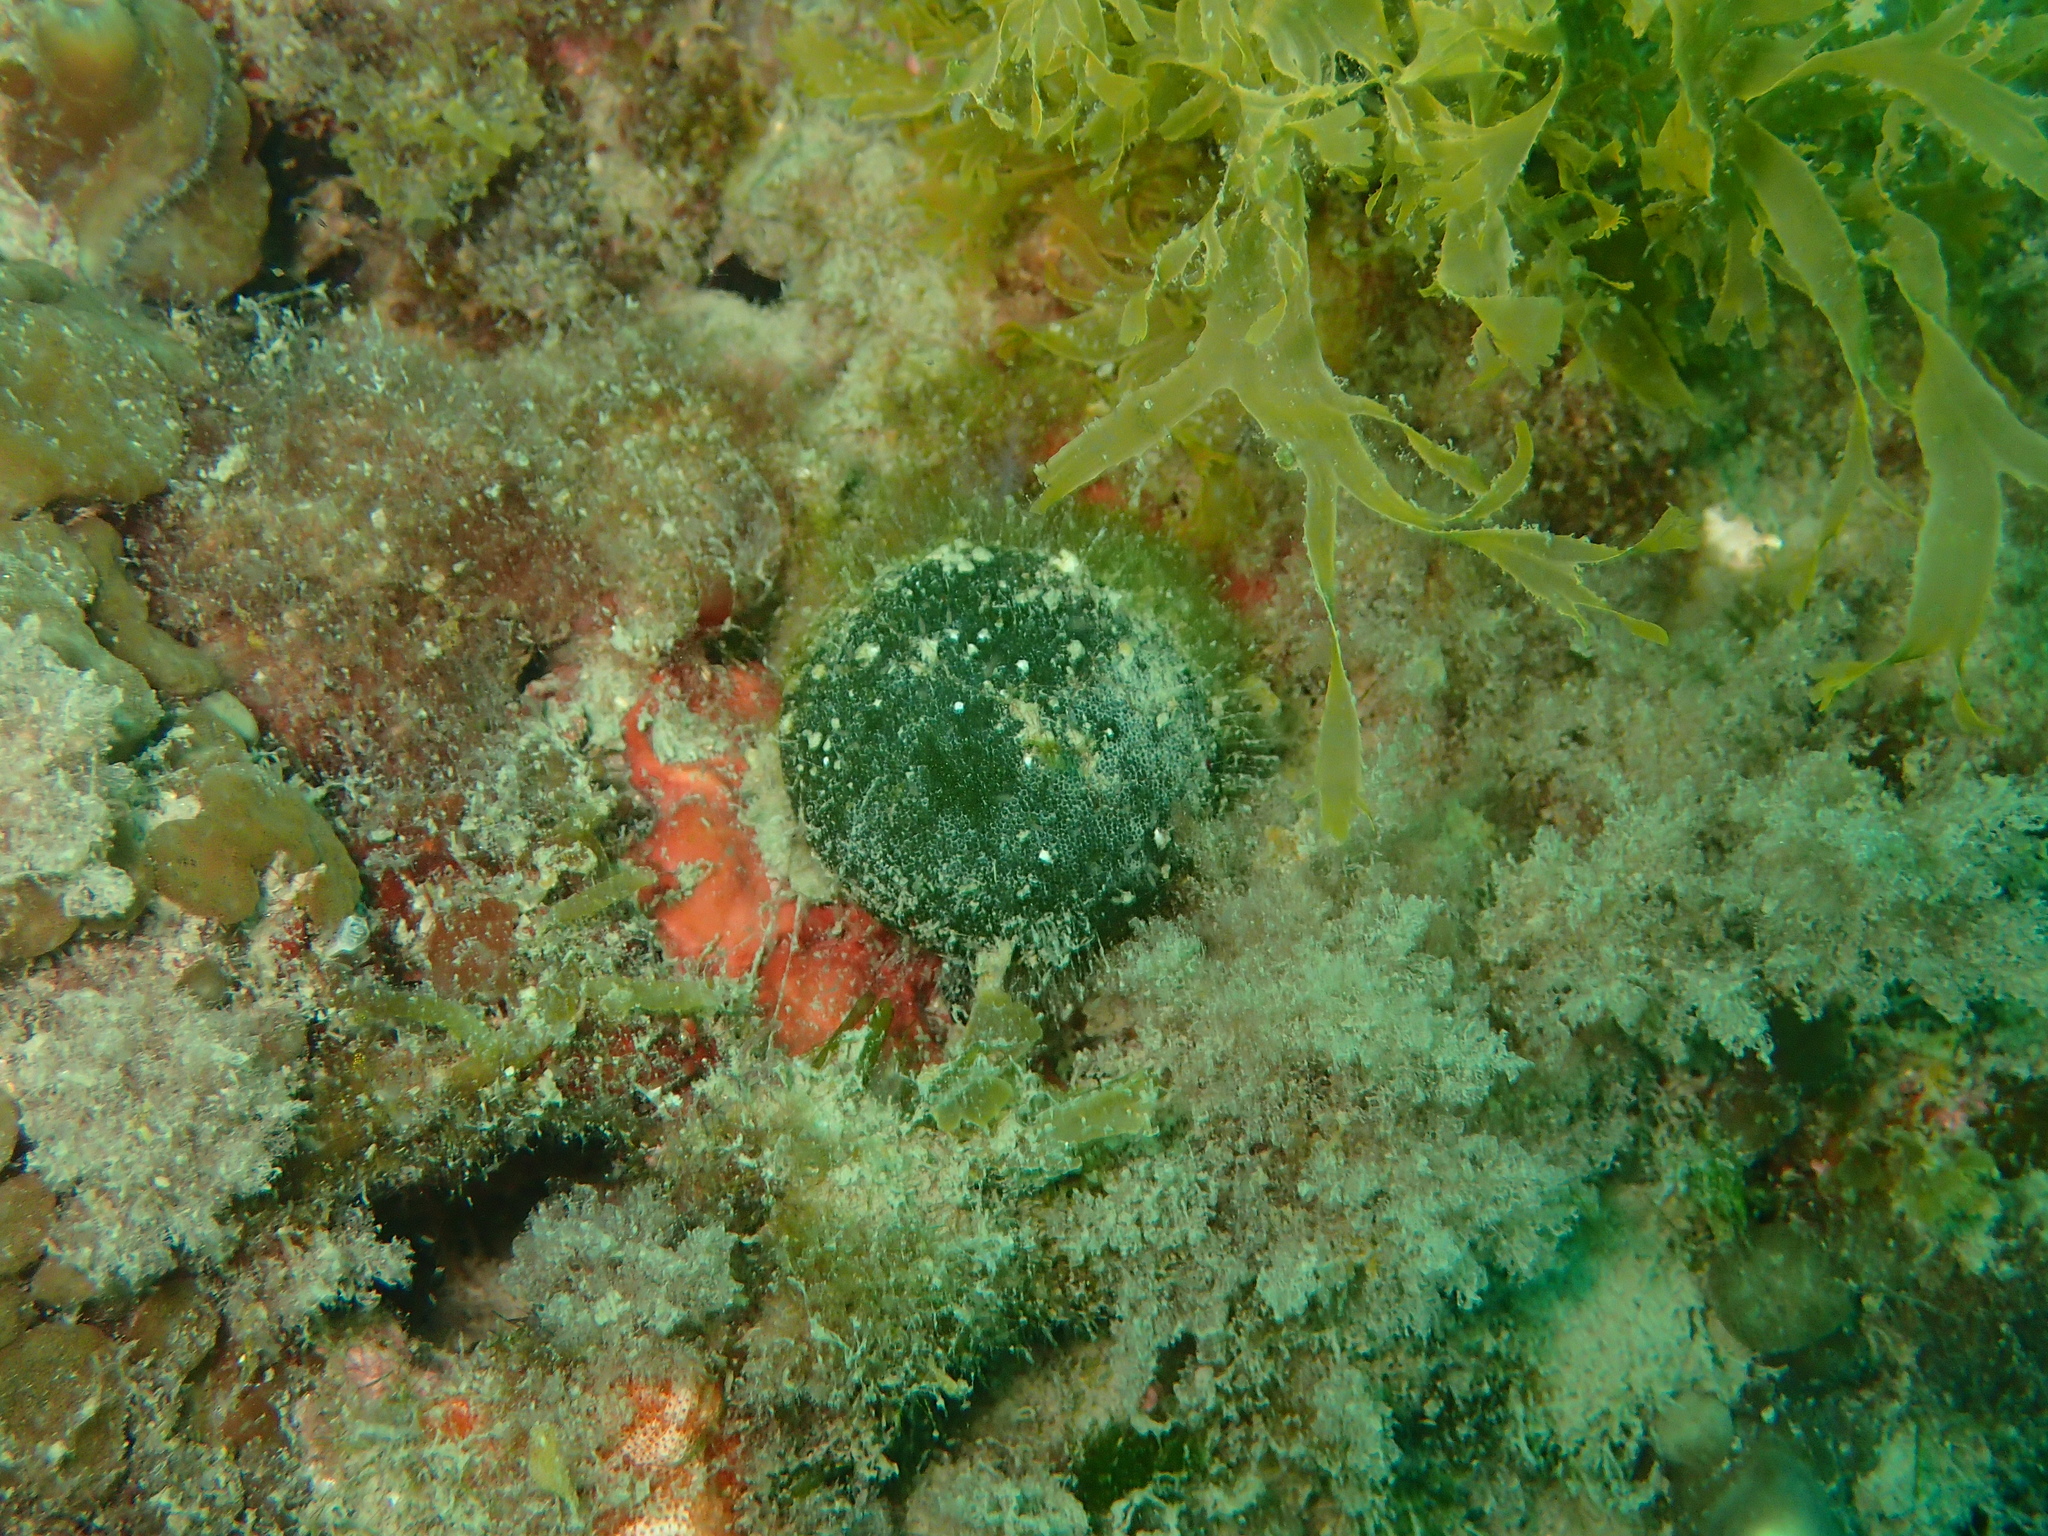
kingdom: Plantae
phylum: Chlorophyta
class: Ulvophyceae
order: Bryopsidales
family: Codiaceae
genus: Codium
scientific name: Codium bursa
